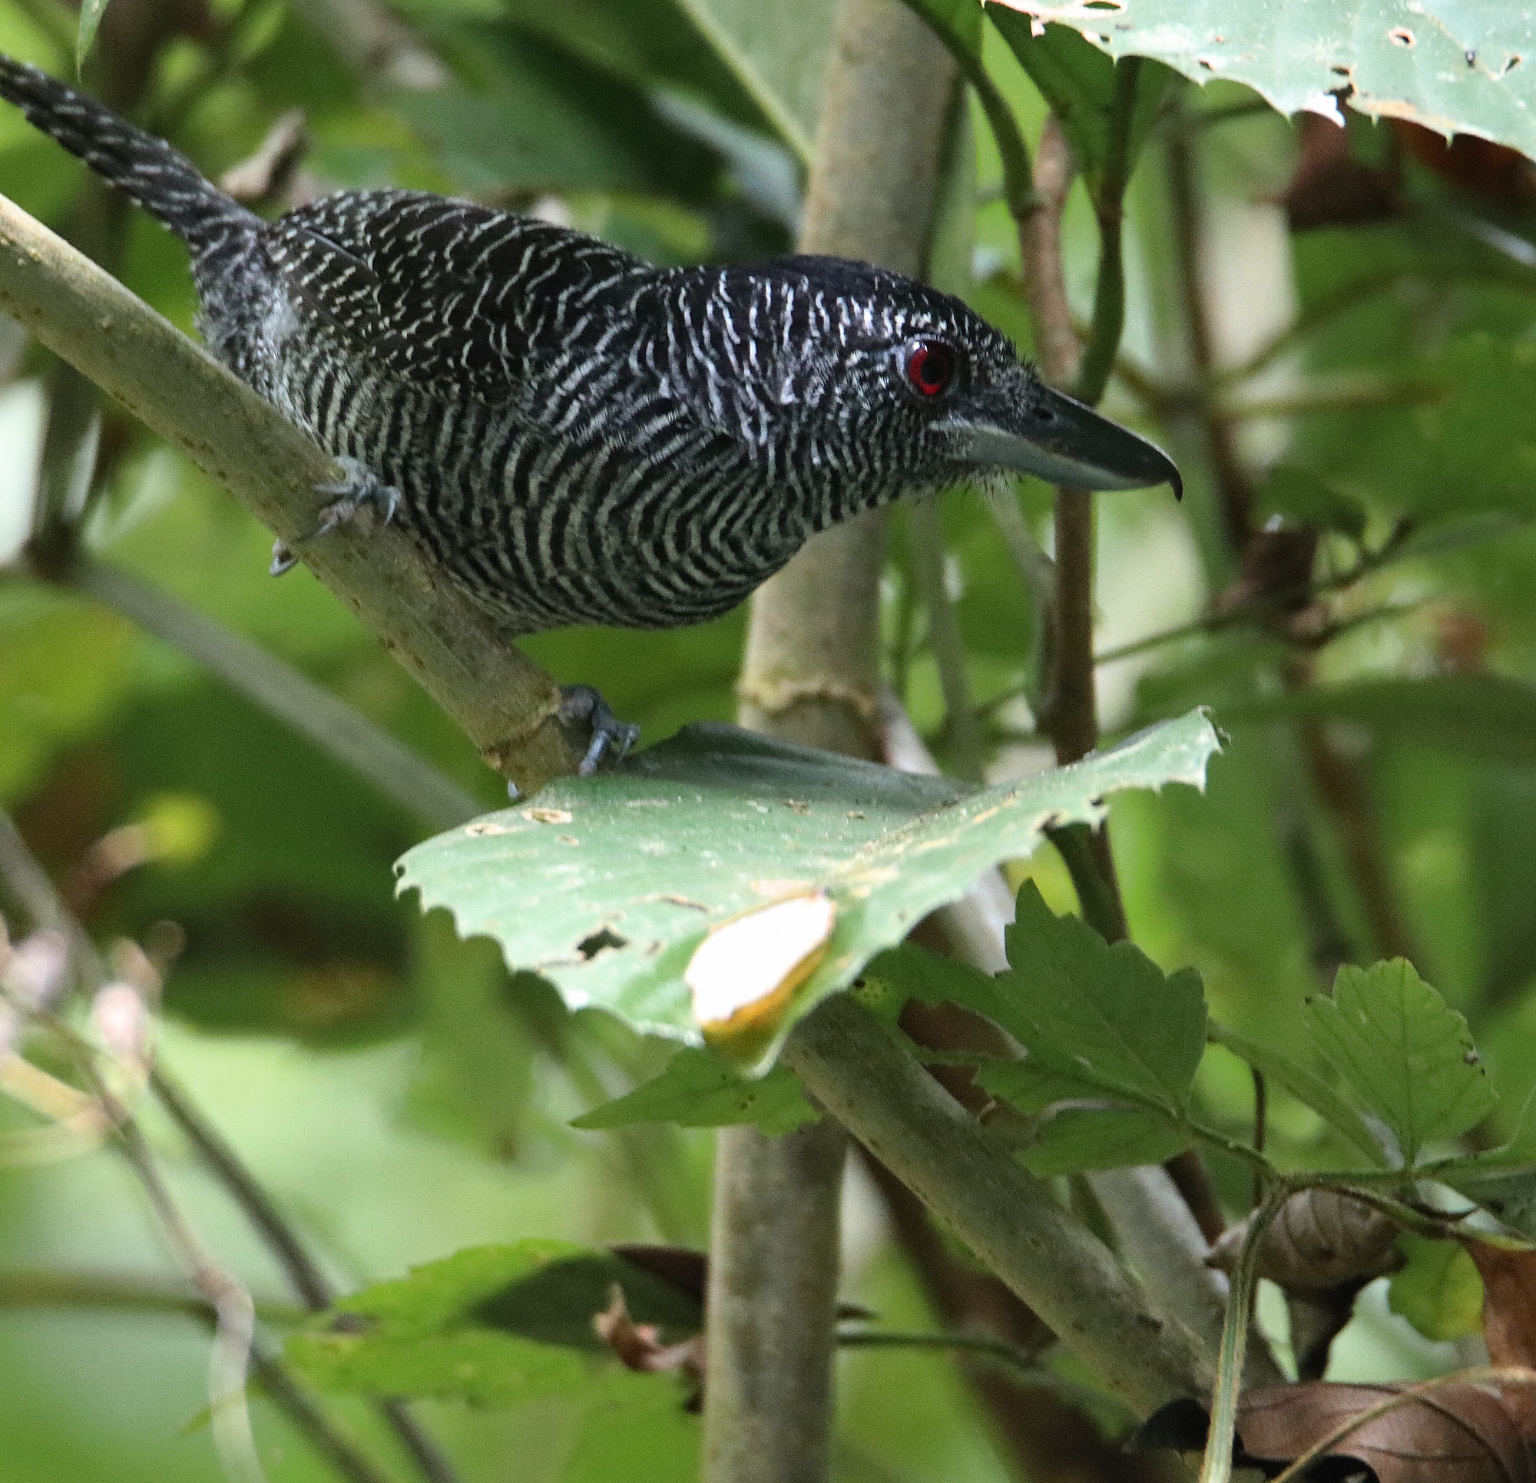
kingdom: Animalia
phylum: Chordata
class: Aves
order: Passeriformes
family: Thamnophilidae
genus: Cymbilaimus
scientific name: Cymbilaimus lineatus
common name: Fasciated antshrike
